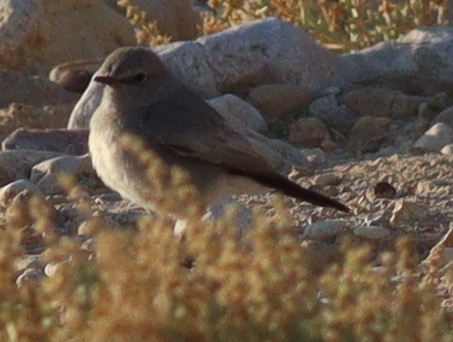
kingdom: Animalia
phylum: Chordata
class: Aves
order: Passeriformes
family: Muscicapidae
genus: Oenanthe
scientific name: Oenanthe melanura
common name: Blackstart
